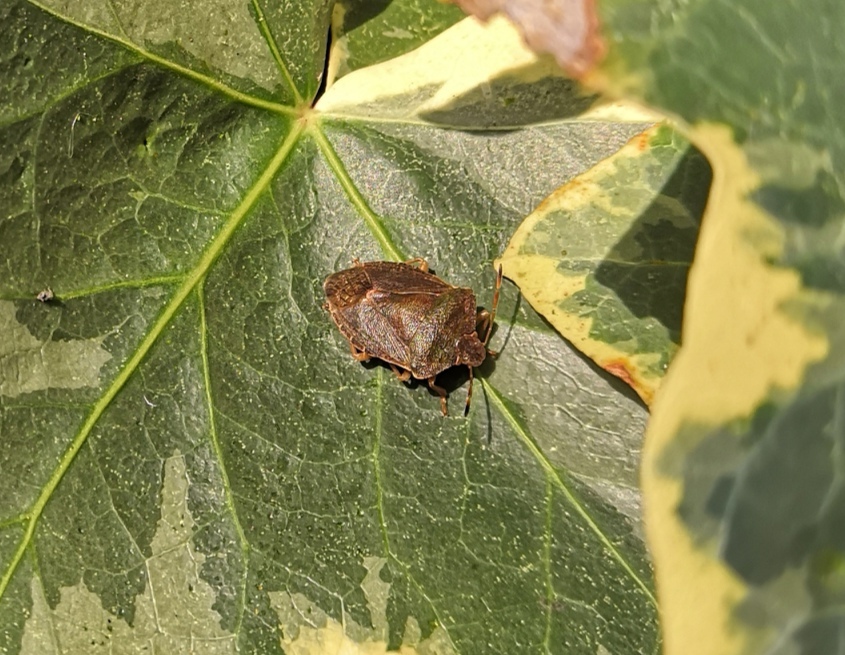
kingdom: Animalia
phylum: Arthropoda
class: Insecta
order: Hemiptera
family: Pentatomidae
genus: Palomena
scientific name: Palomena prasina
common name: Green shieldbug
